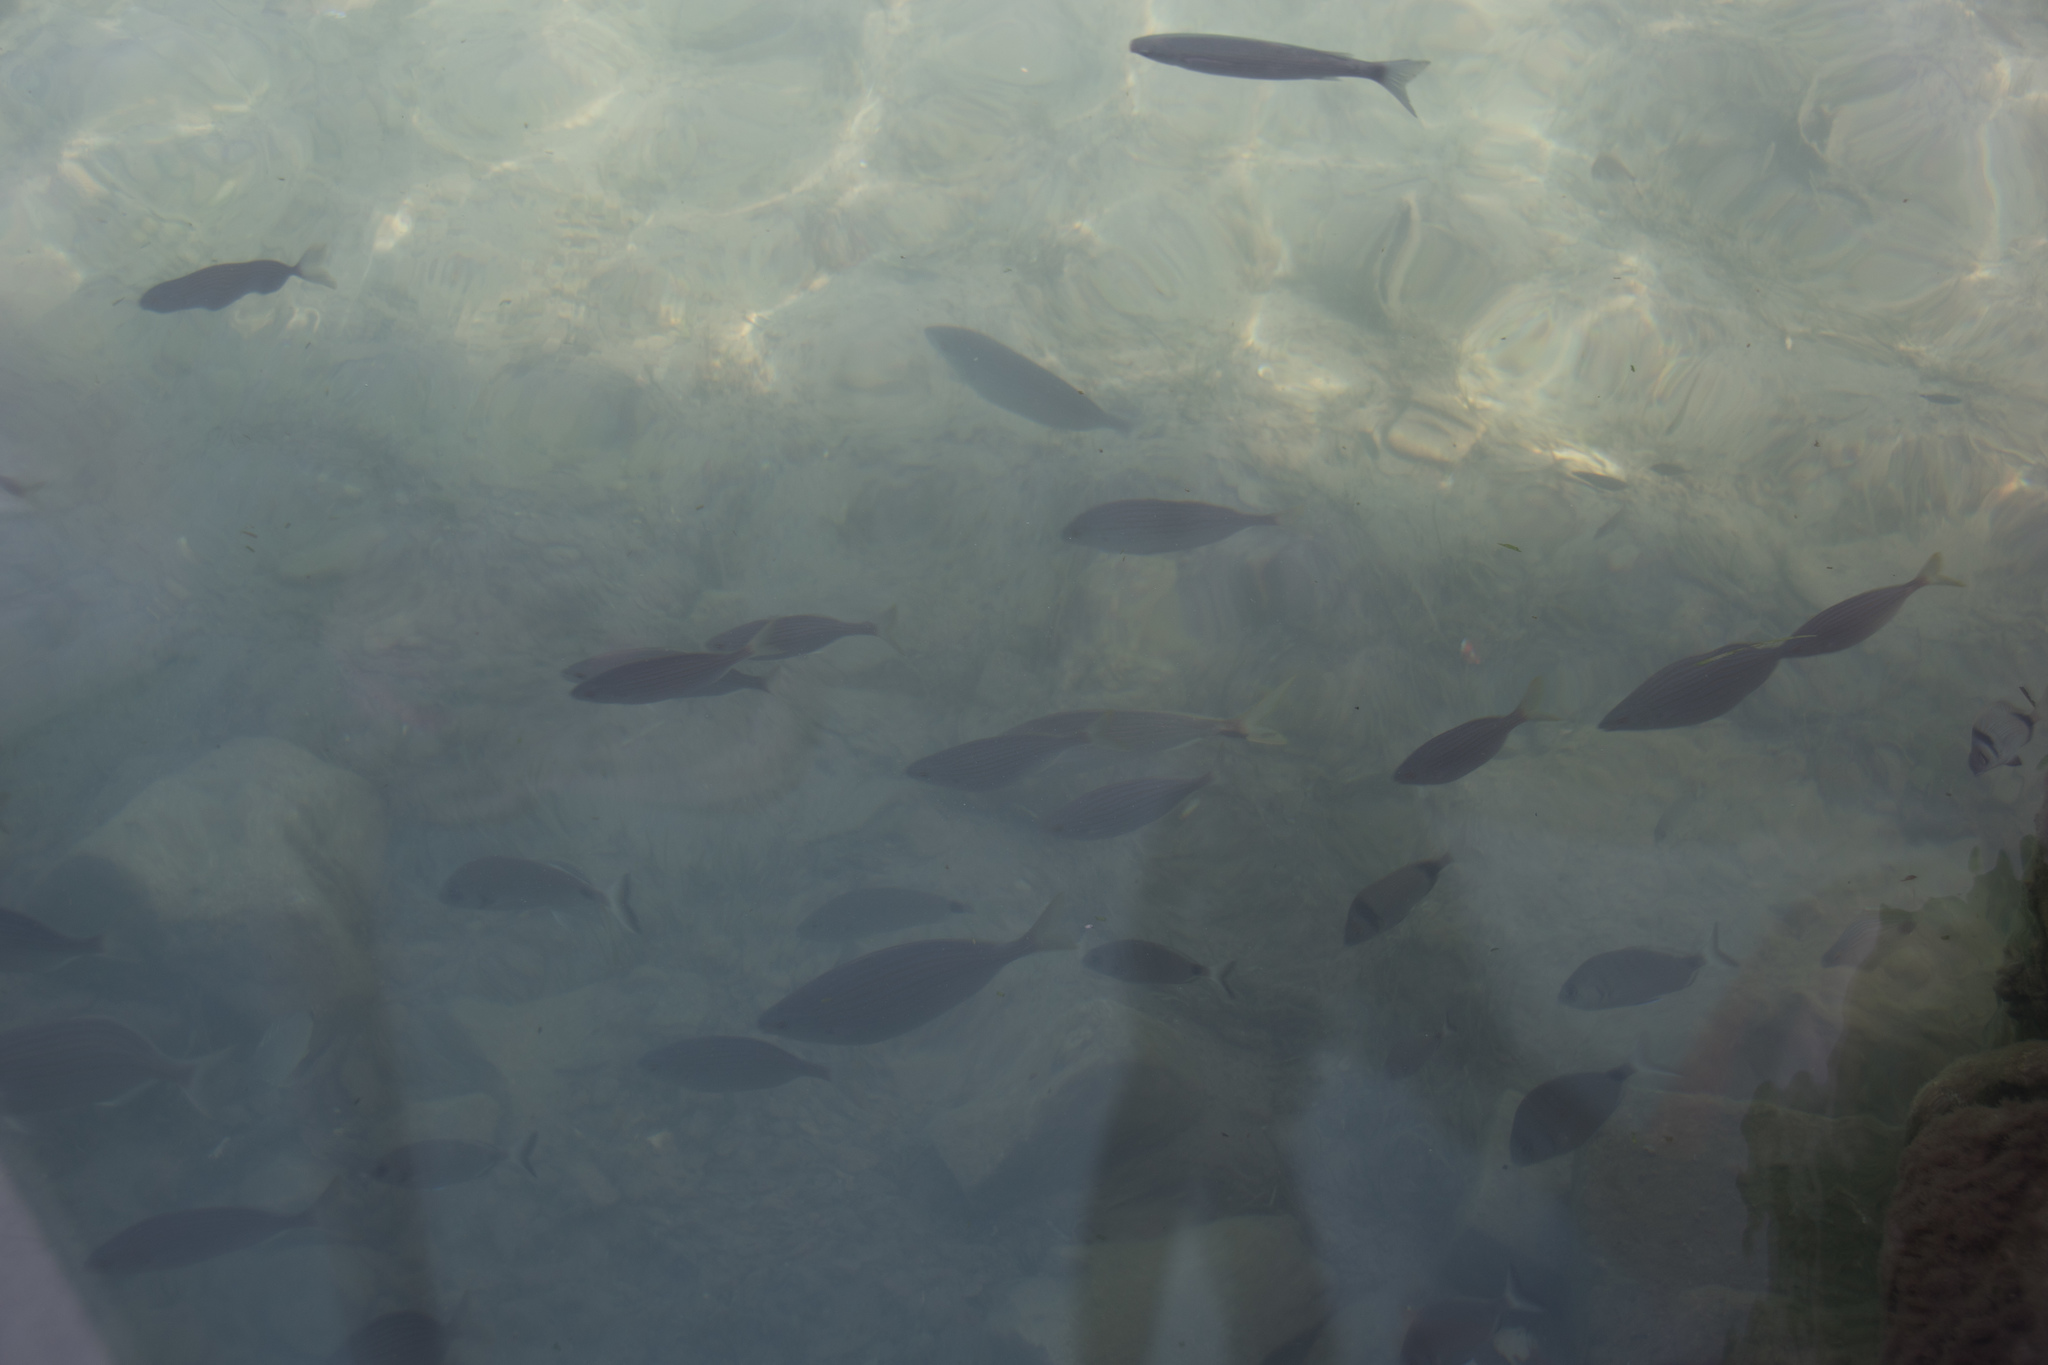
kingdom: Animalia
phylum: Chordata
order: Perciformes
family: Sparidae
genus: Sarpa
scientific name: Sarpa salpa
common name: Salema
